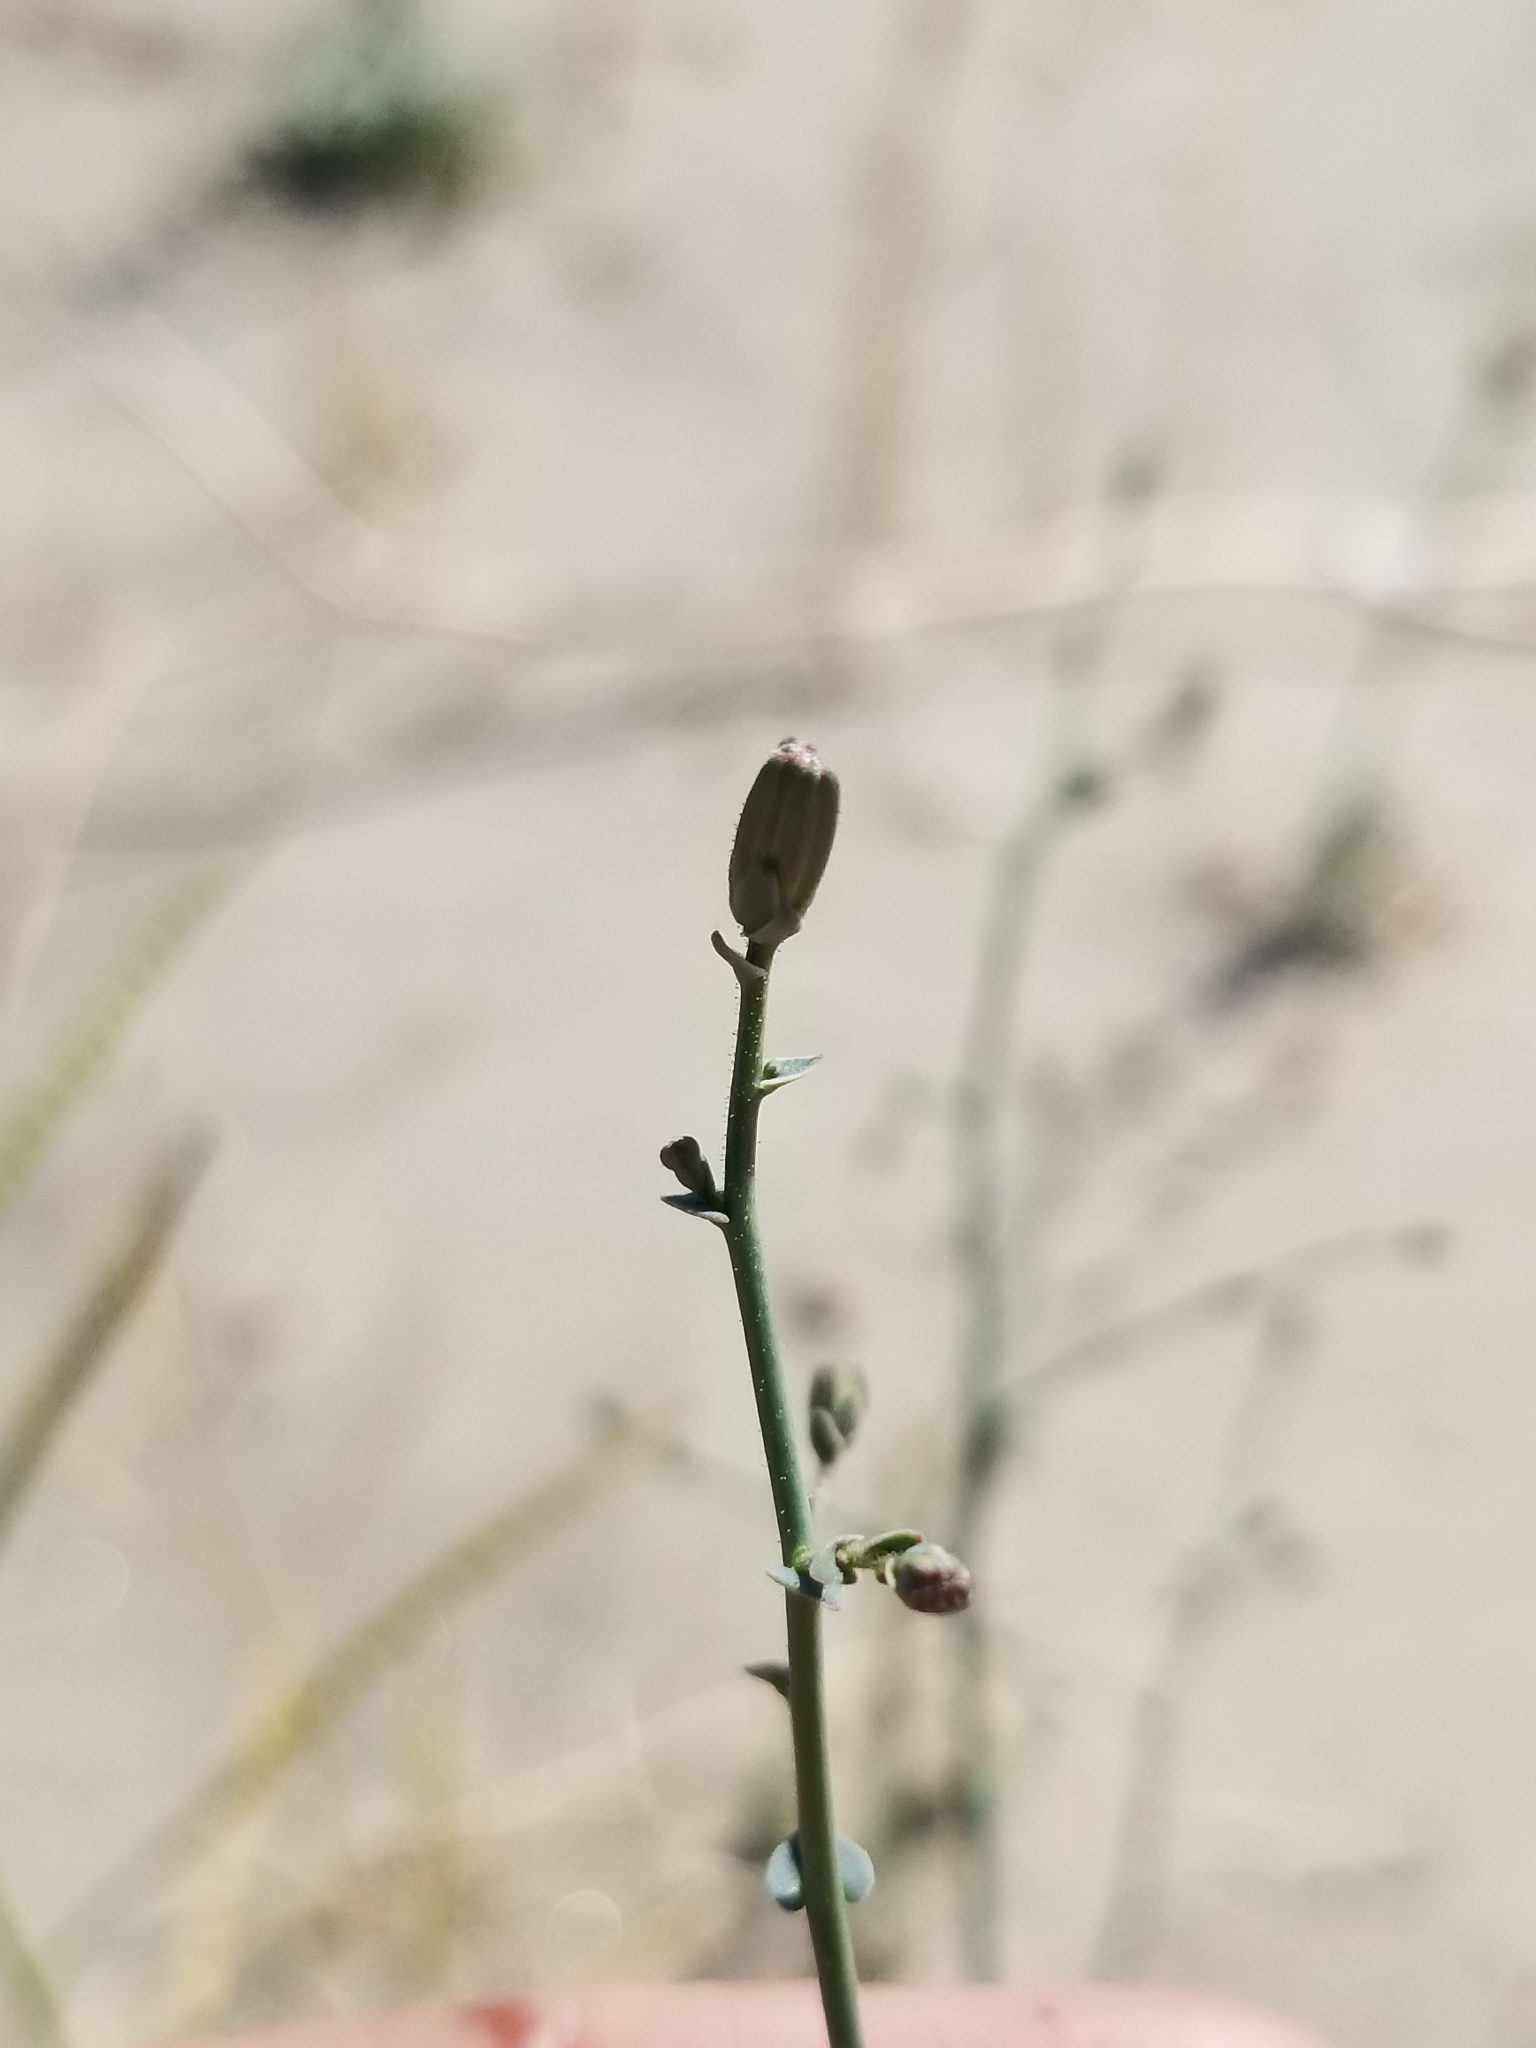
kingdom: Plantae
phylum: Tracheophyta
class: Magnoliopsida
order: Asterales
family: Asteraceae
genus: Rafinesquia
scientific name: Rafinesquia neomexicana
